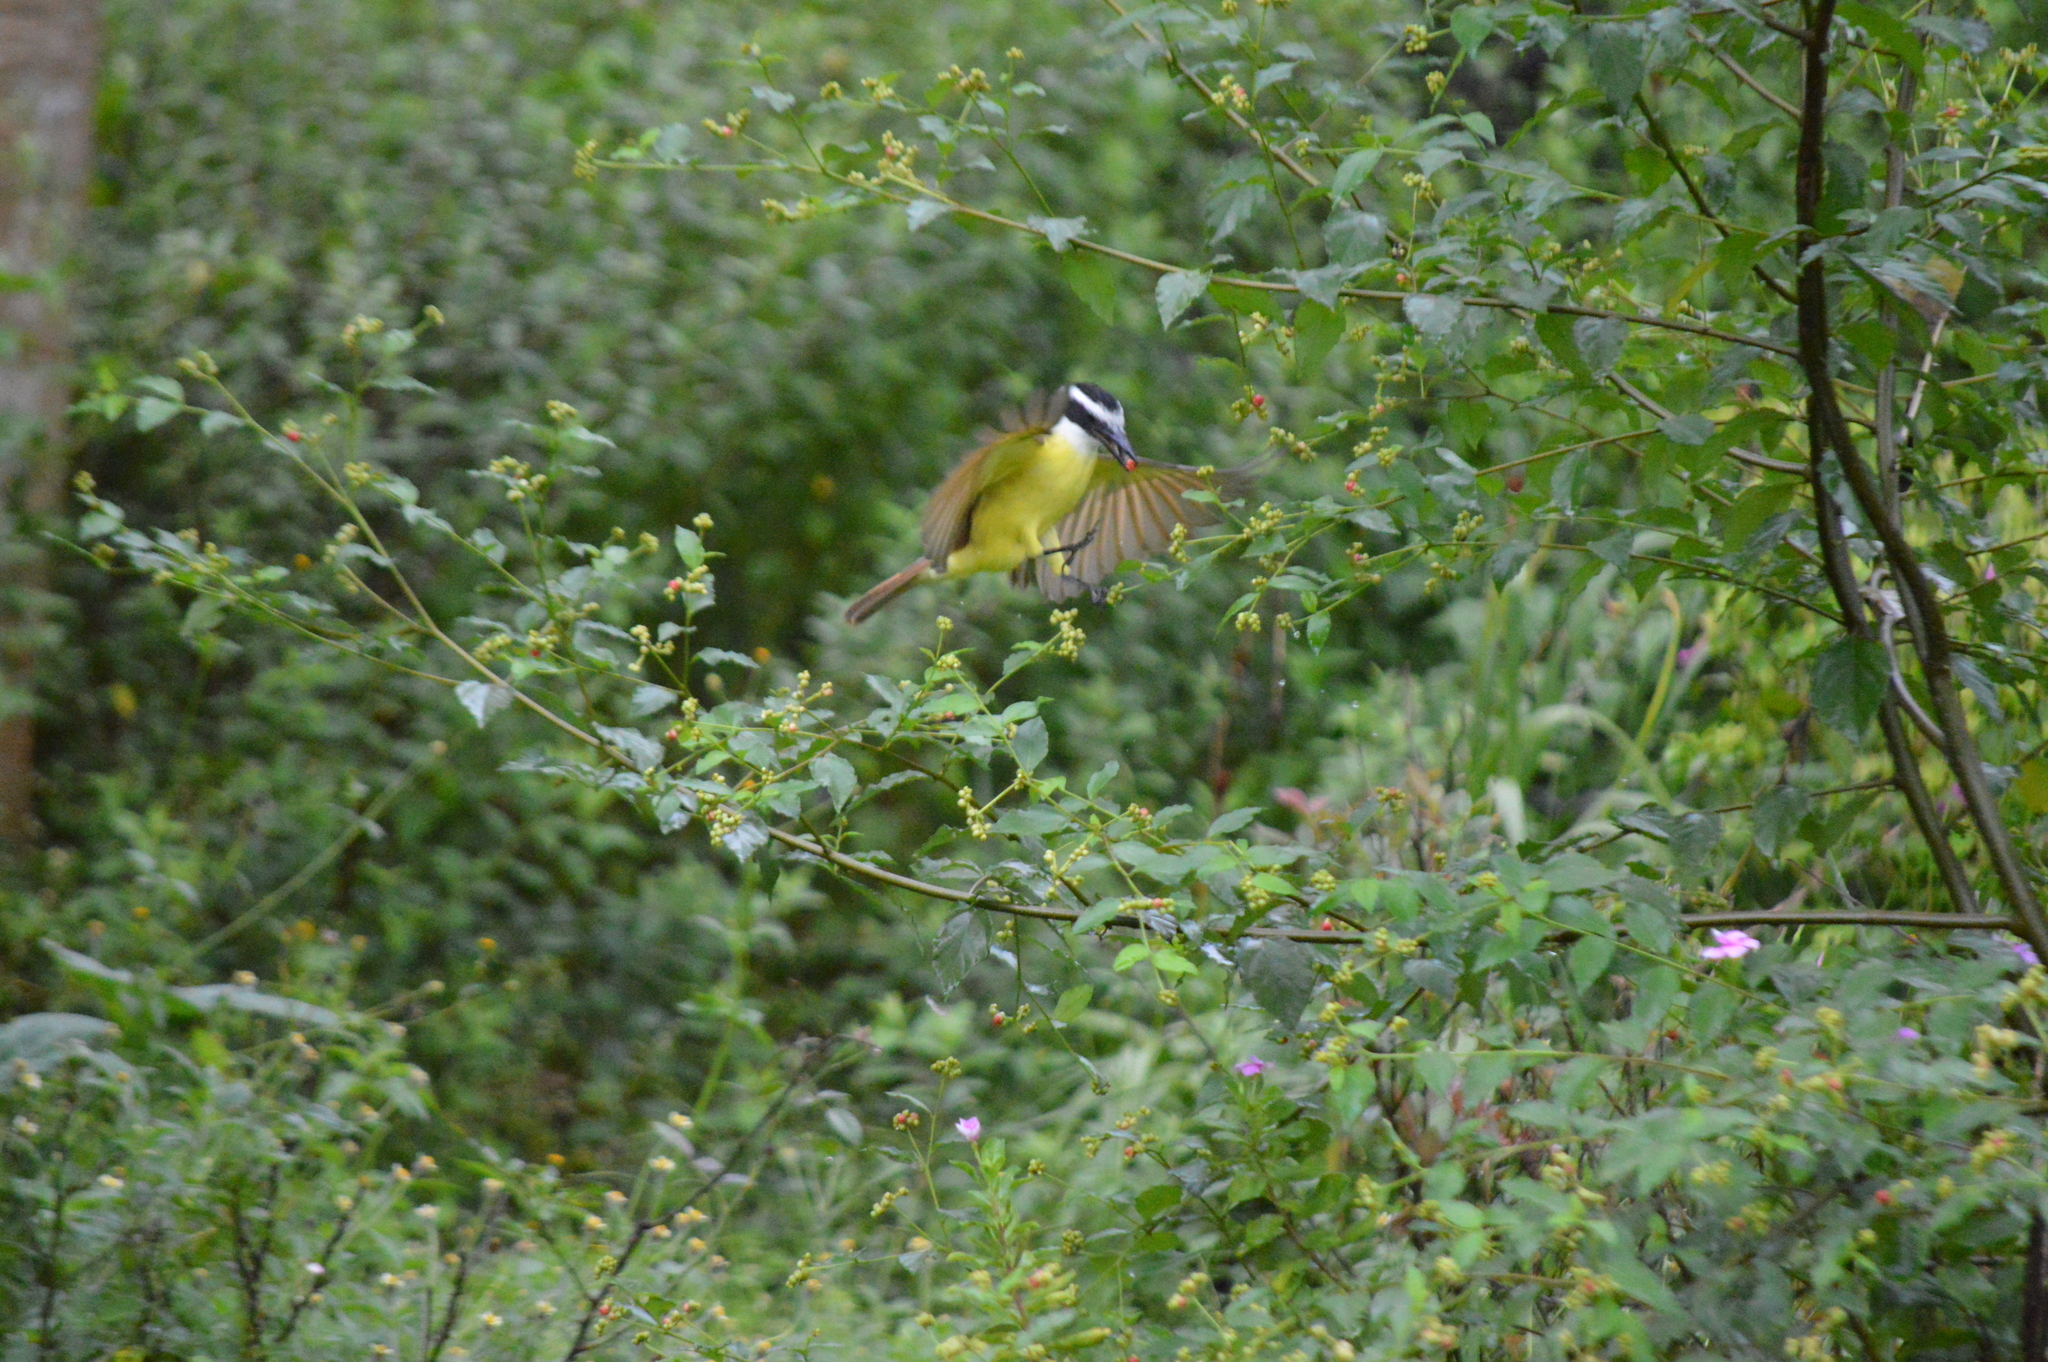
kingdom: Animalia
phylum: Chordata
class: Aves
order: Passeriformes
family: Tyrannidae
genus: Pitangus
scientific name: Pitangus sulphuratus
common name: Great kiskadee
